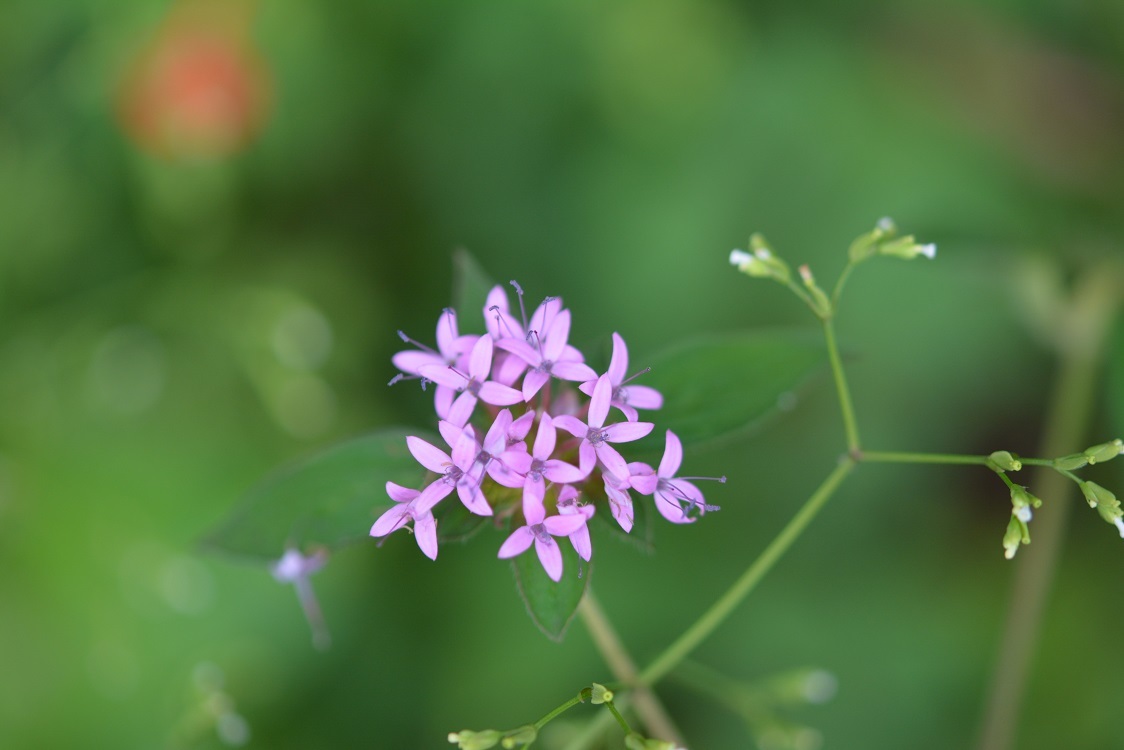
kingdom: Plantae
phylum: Tracheophyta
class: Magnoliopsida
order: Gentianales
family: Rubiaceae
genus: Crusea
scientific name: Crusea longiflora
